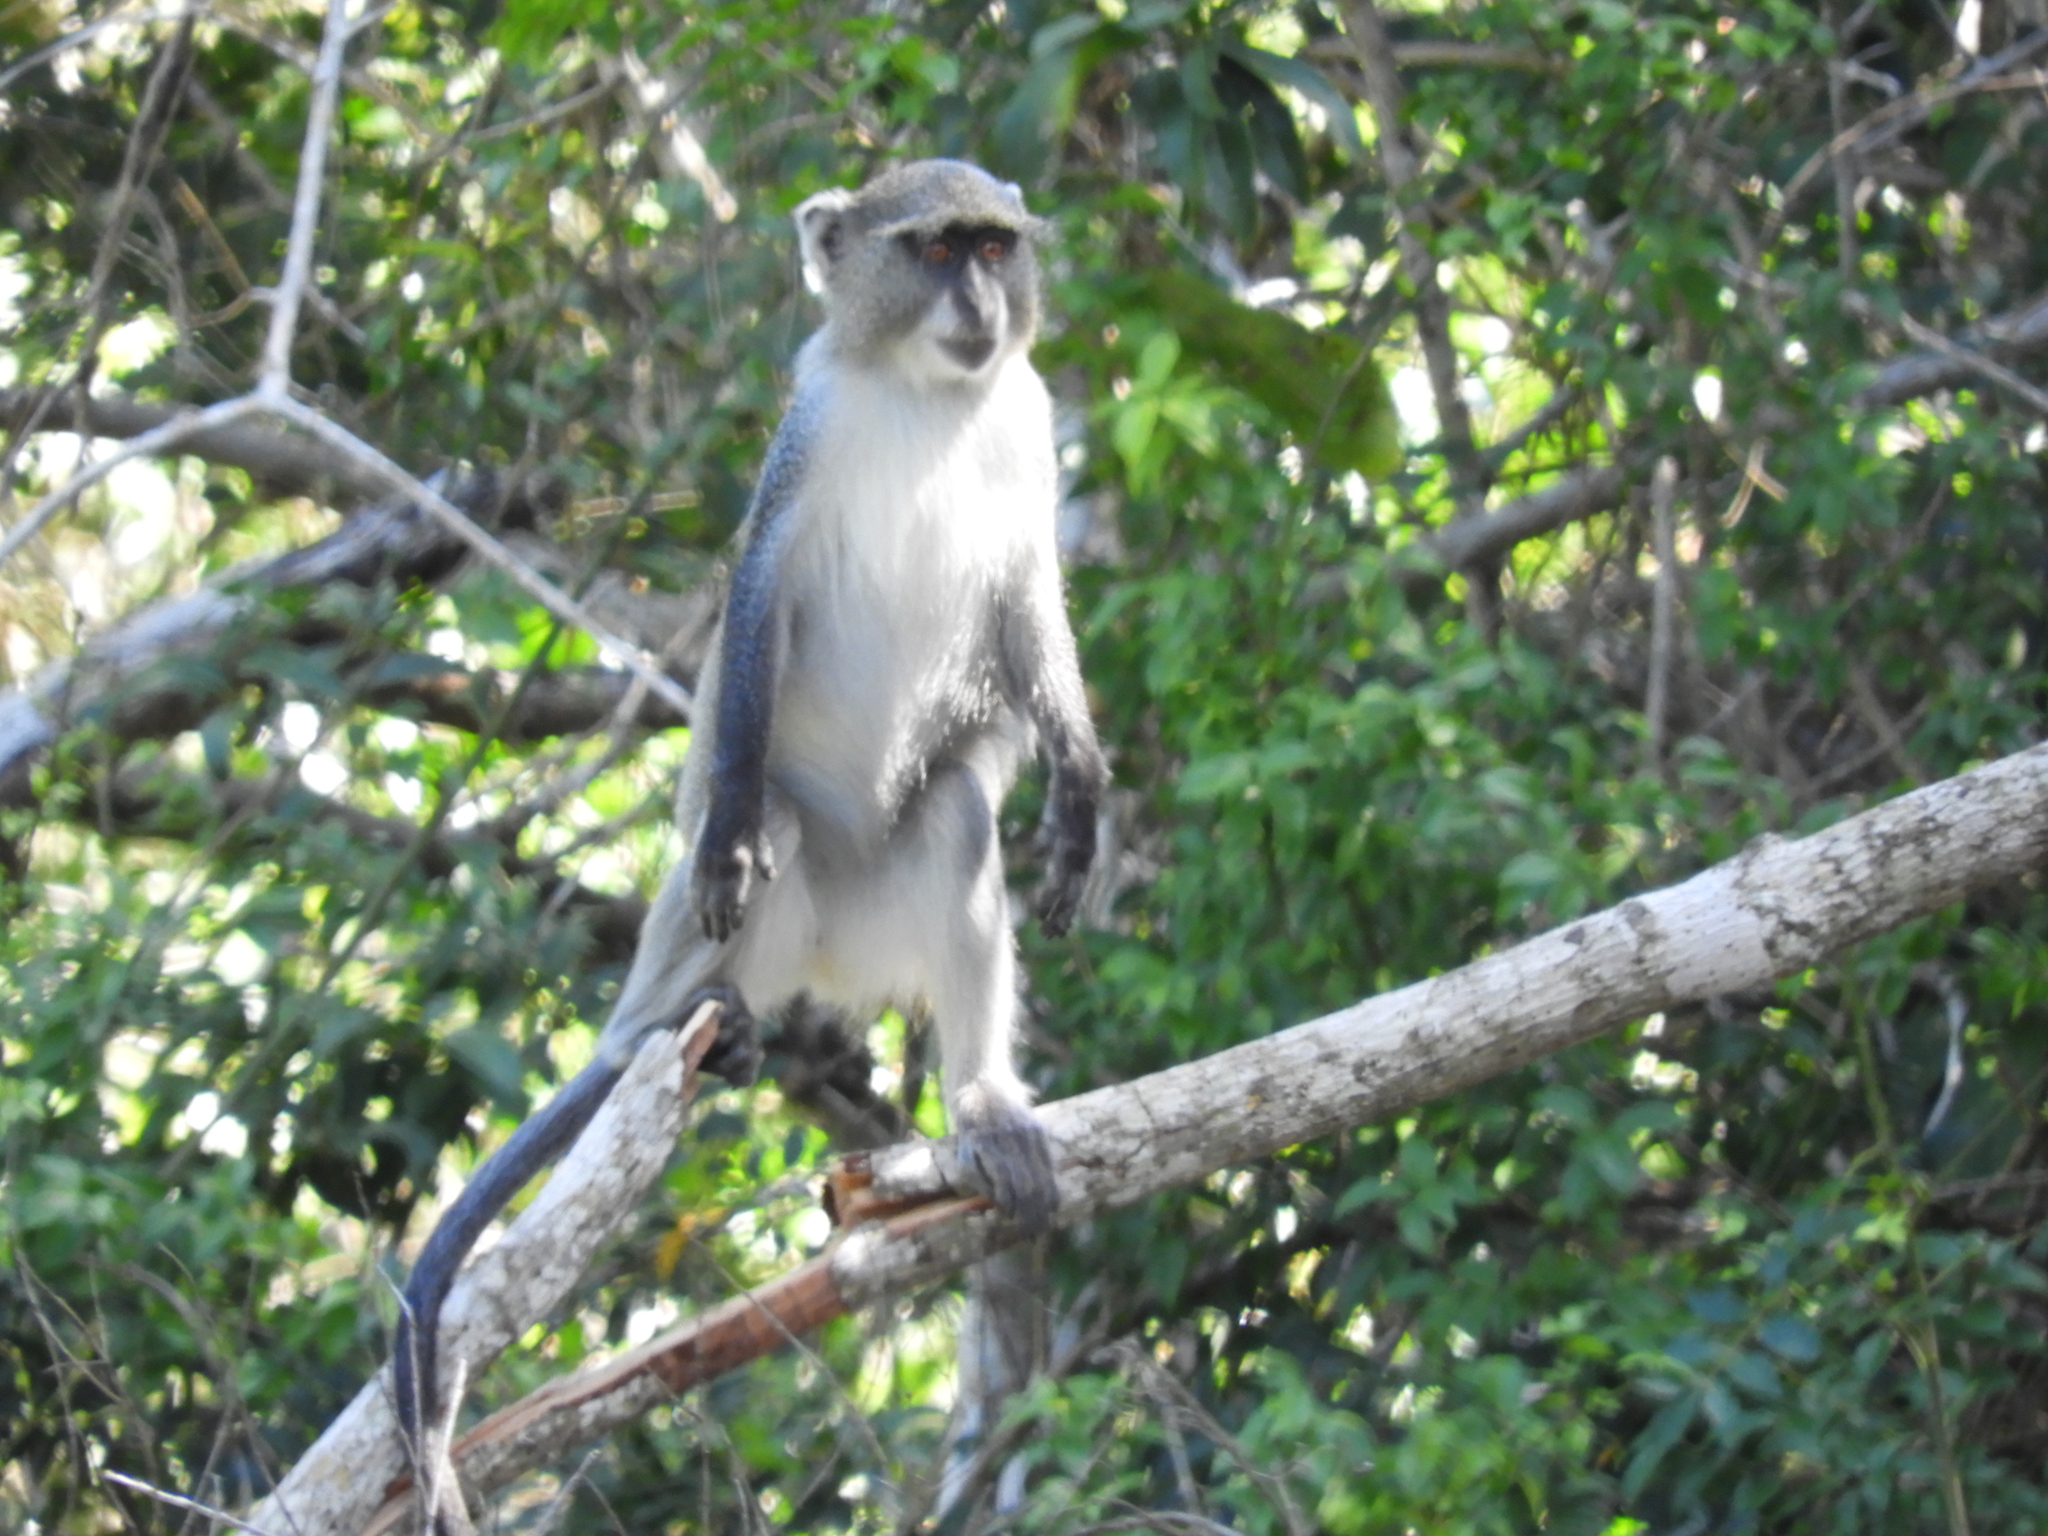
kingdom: Animalia
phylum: Chordata
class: Mammalia
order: Primates
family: Cercopithecidae
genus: Cercopithecus
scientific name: Cercopithecus mitis
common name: Blue monkey
